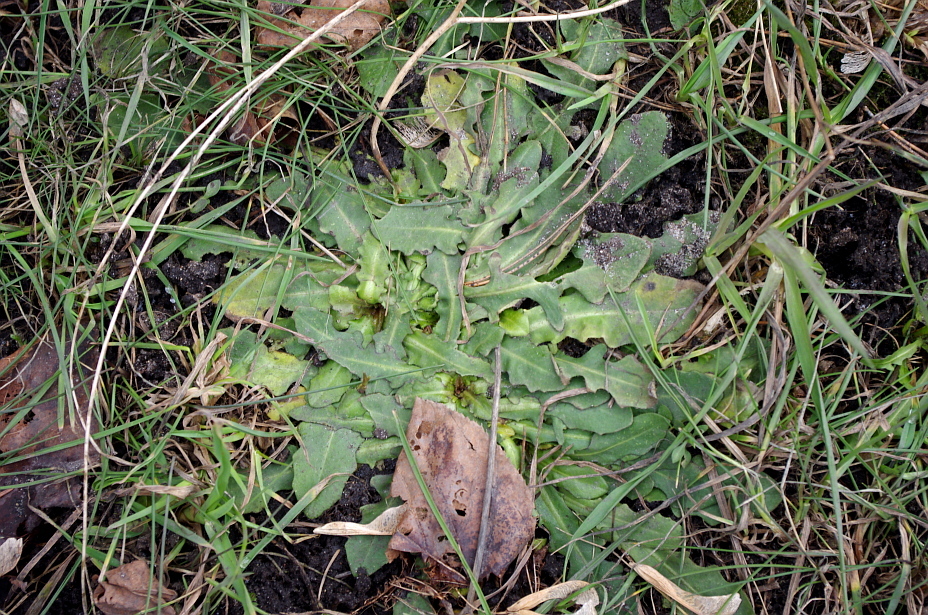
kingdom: Plantae
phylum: Tracheophyta
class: Magnoliopsida
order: Asterales
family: Asteraceae
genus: Hypochaeris
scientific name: Hypochaeris radicata
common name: Flatweed
